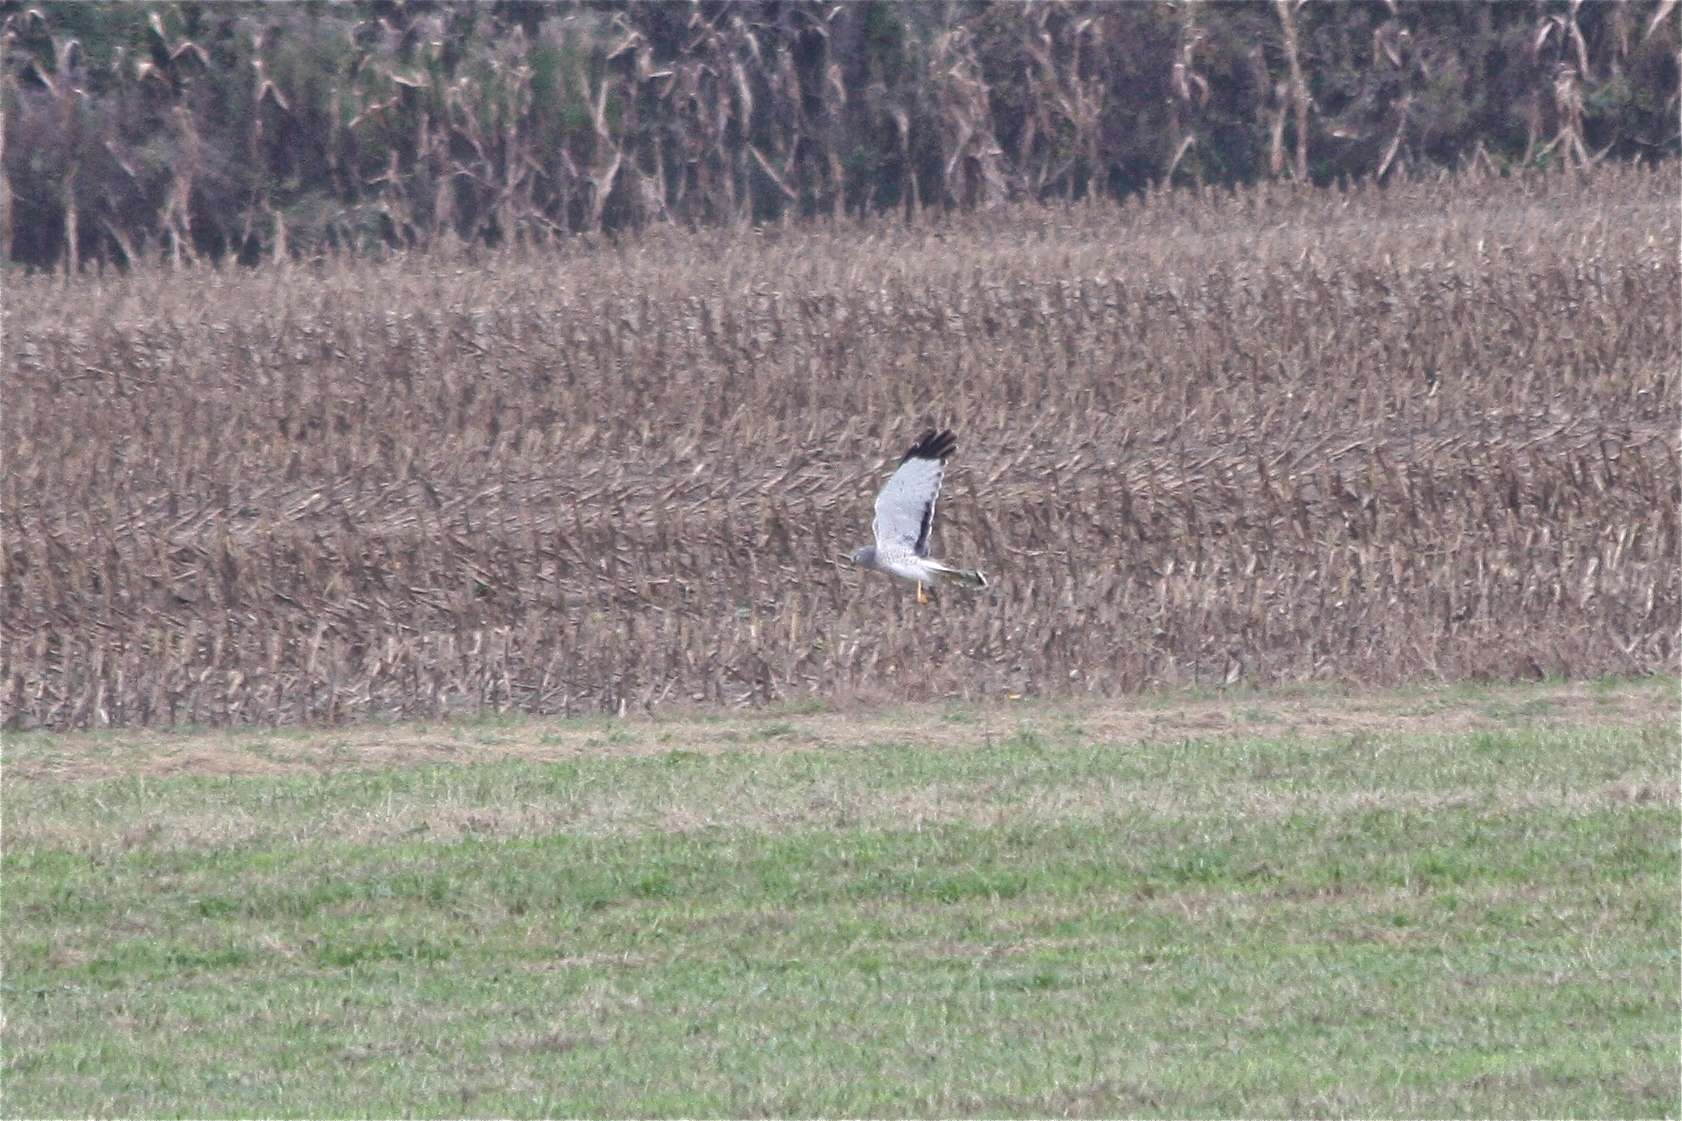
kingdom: Animalia
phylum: Chordata
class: Aves
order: Accipitriformes
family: Accipitridae
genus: Circus
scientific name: Circus cyaneus
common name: Hen harrier
